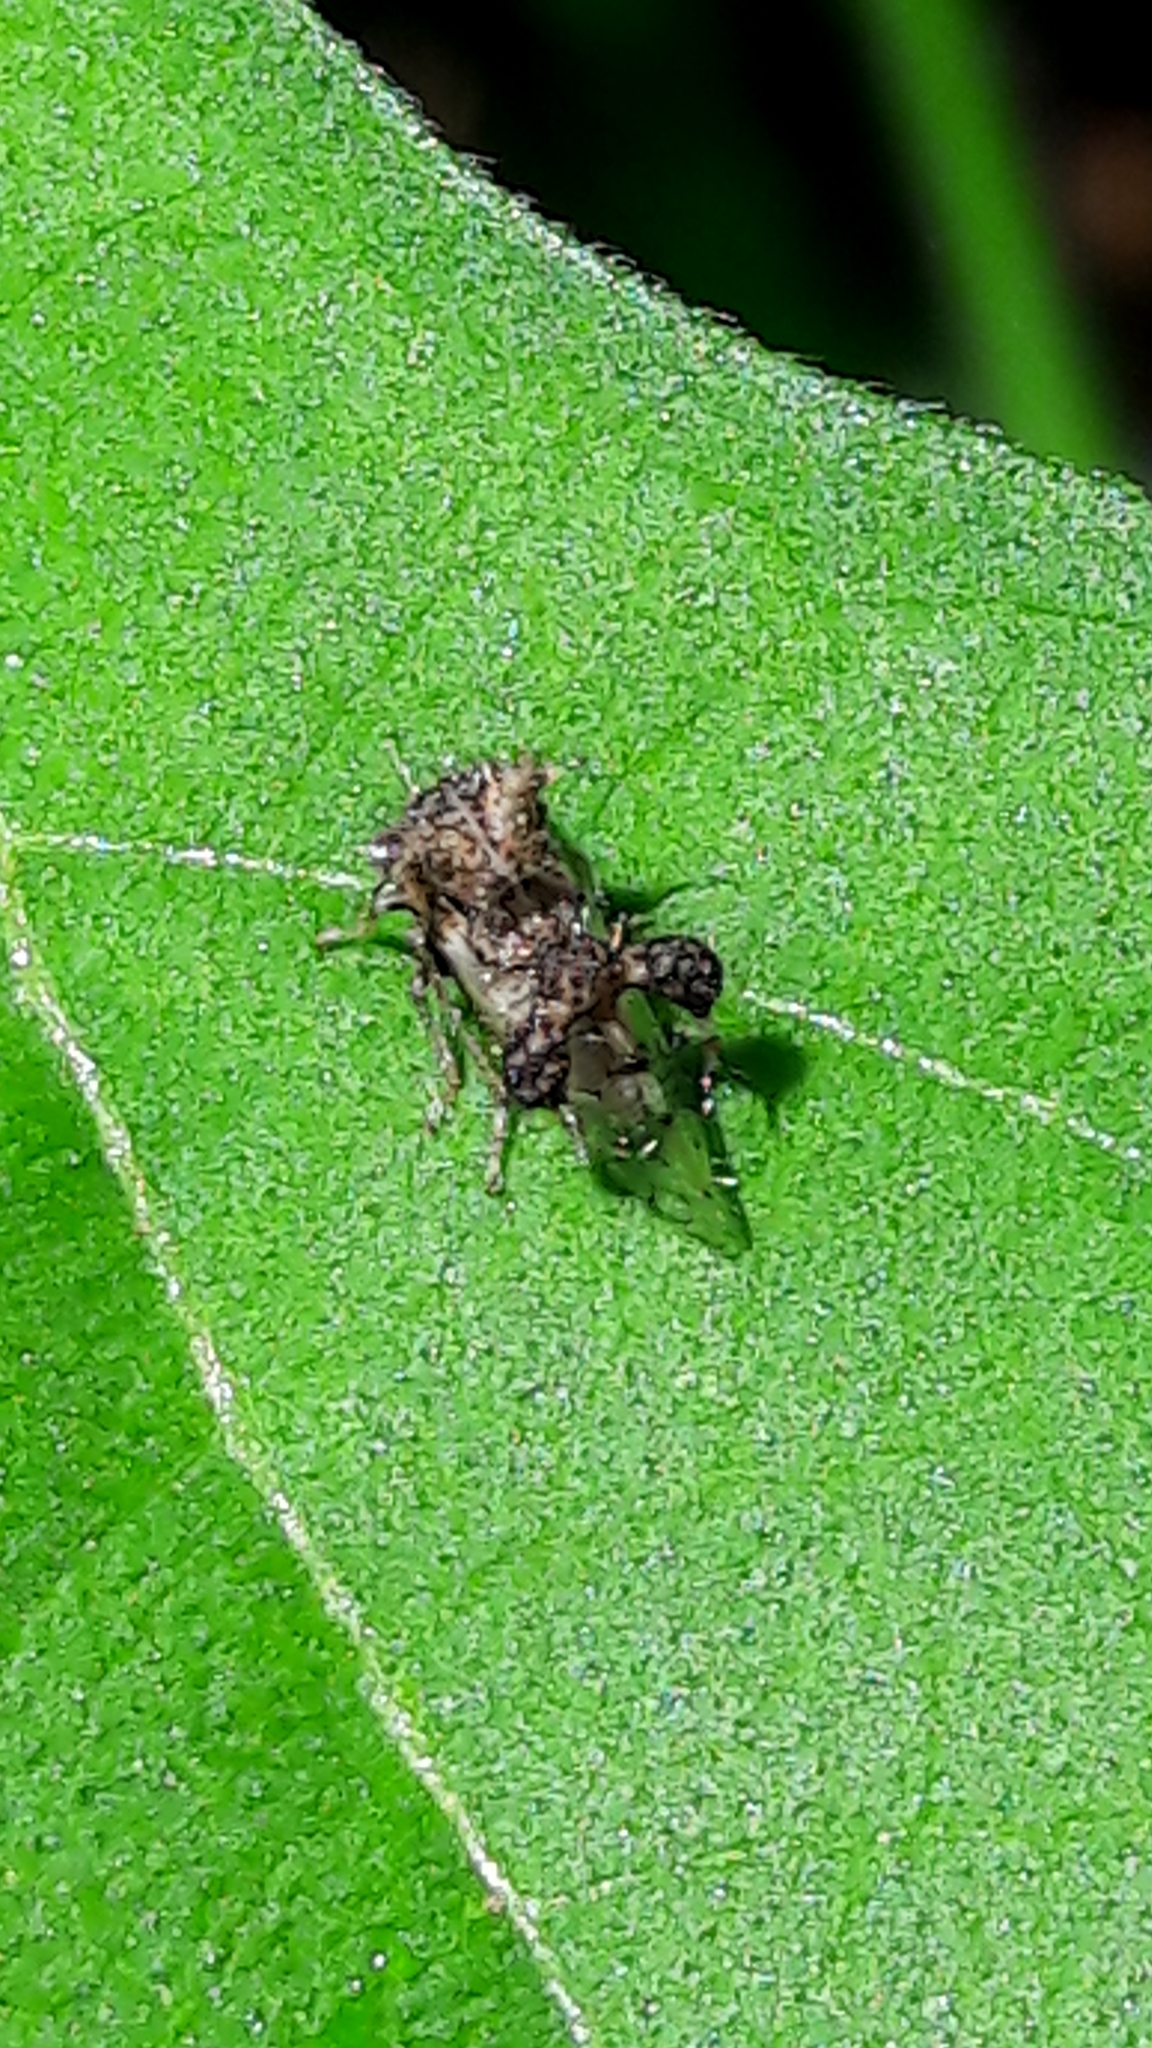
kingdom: Animalia
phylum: Arthropoda
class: Insecta
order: Hemiptera
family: Membracidae
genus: Cyphonia
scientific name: Cyphonia claviger
